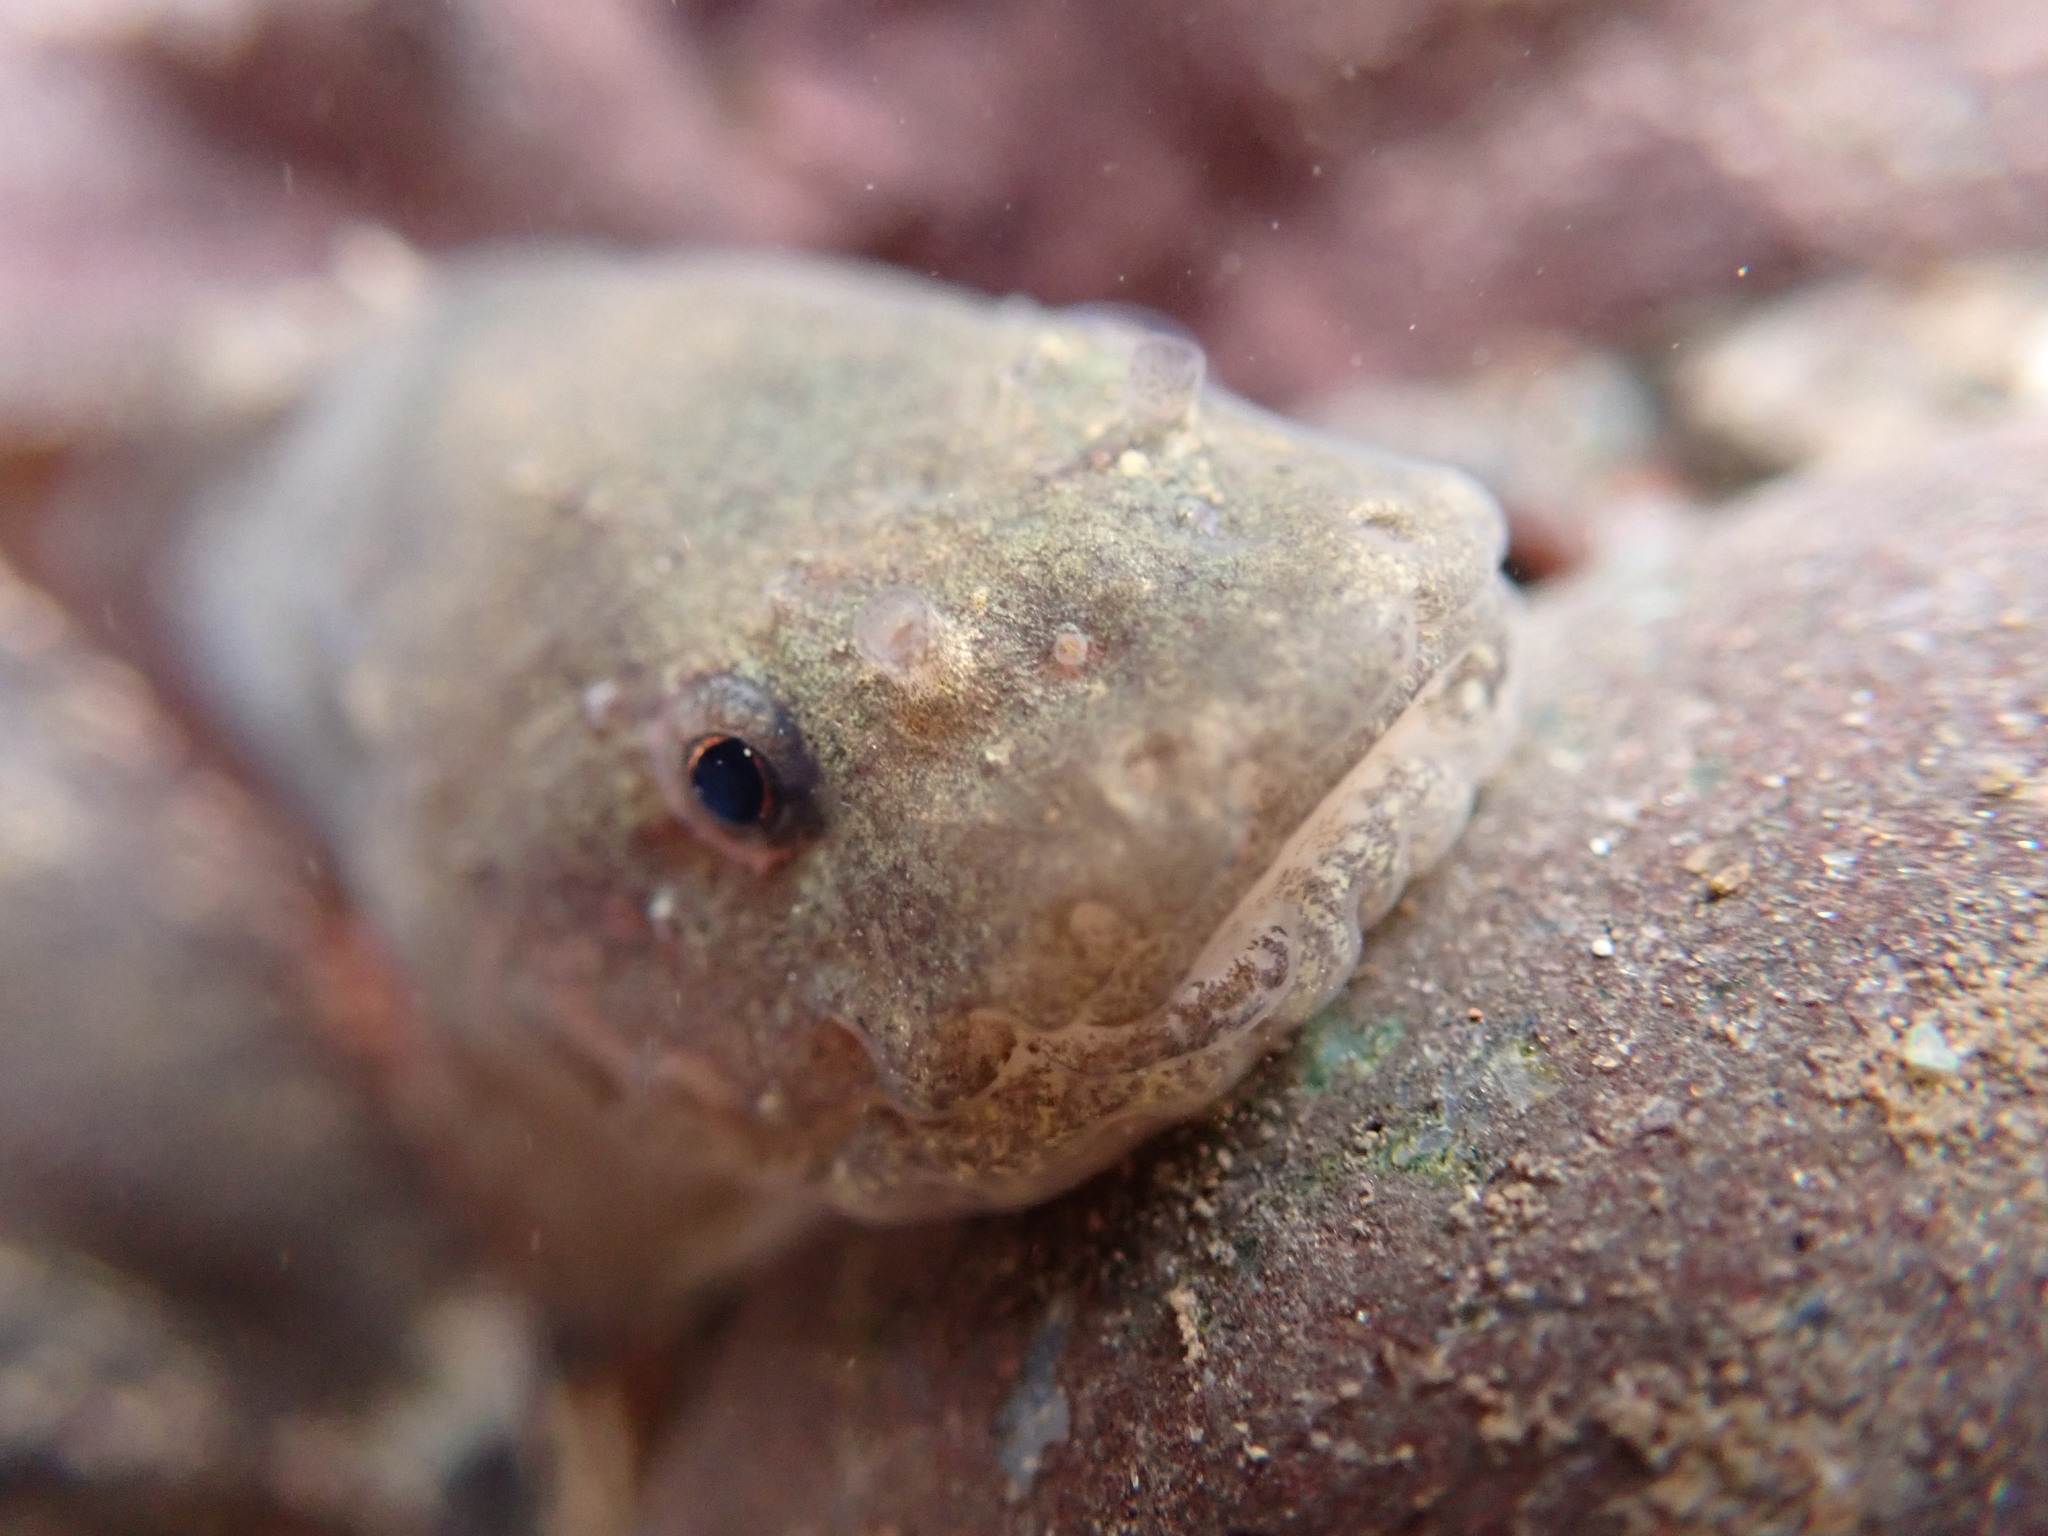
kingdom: Animalia
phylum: Chordata
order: Scorpaeniformes
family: Liparidae
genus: Liparis
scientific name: Liparis atlanticus
